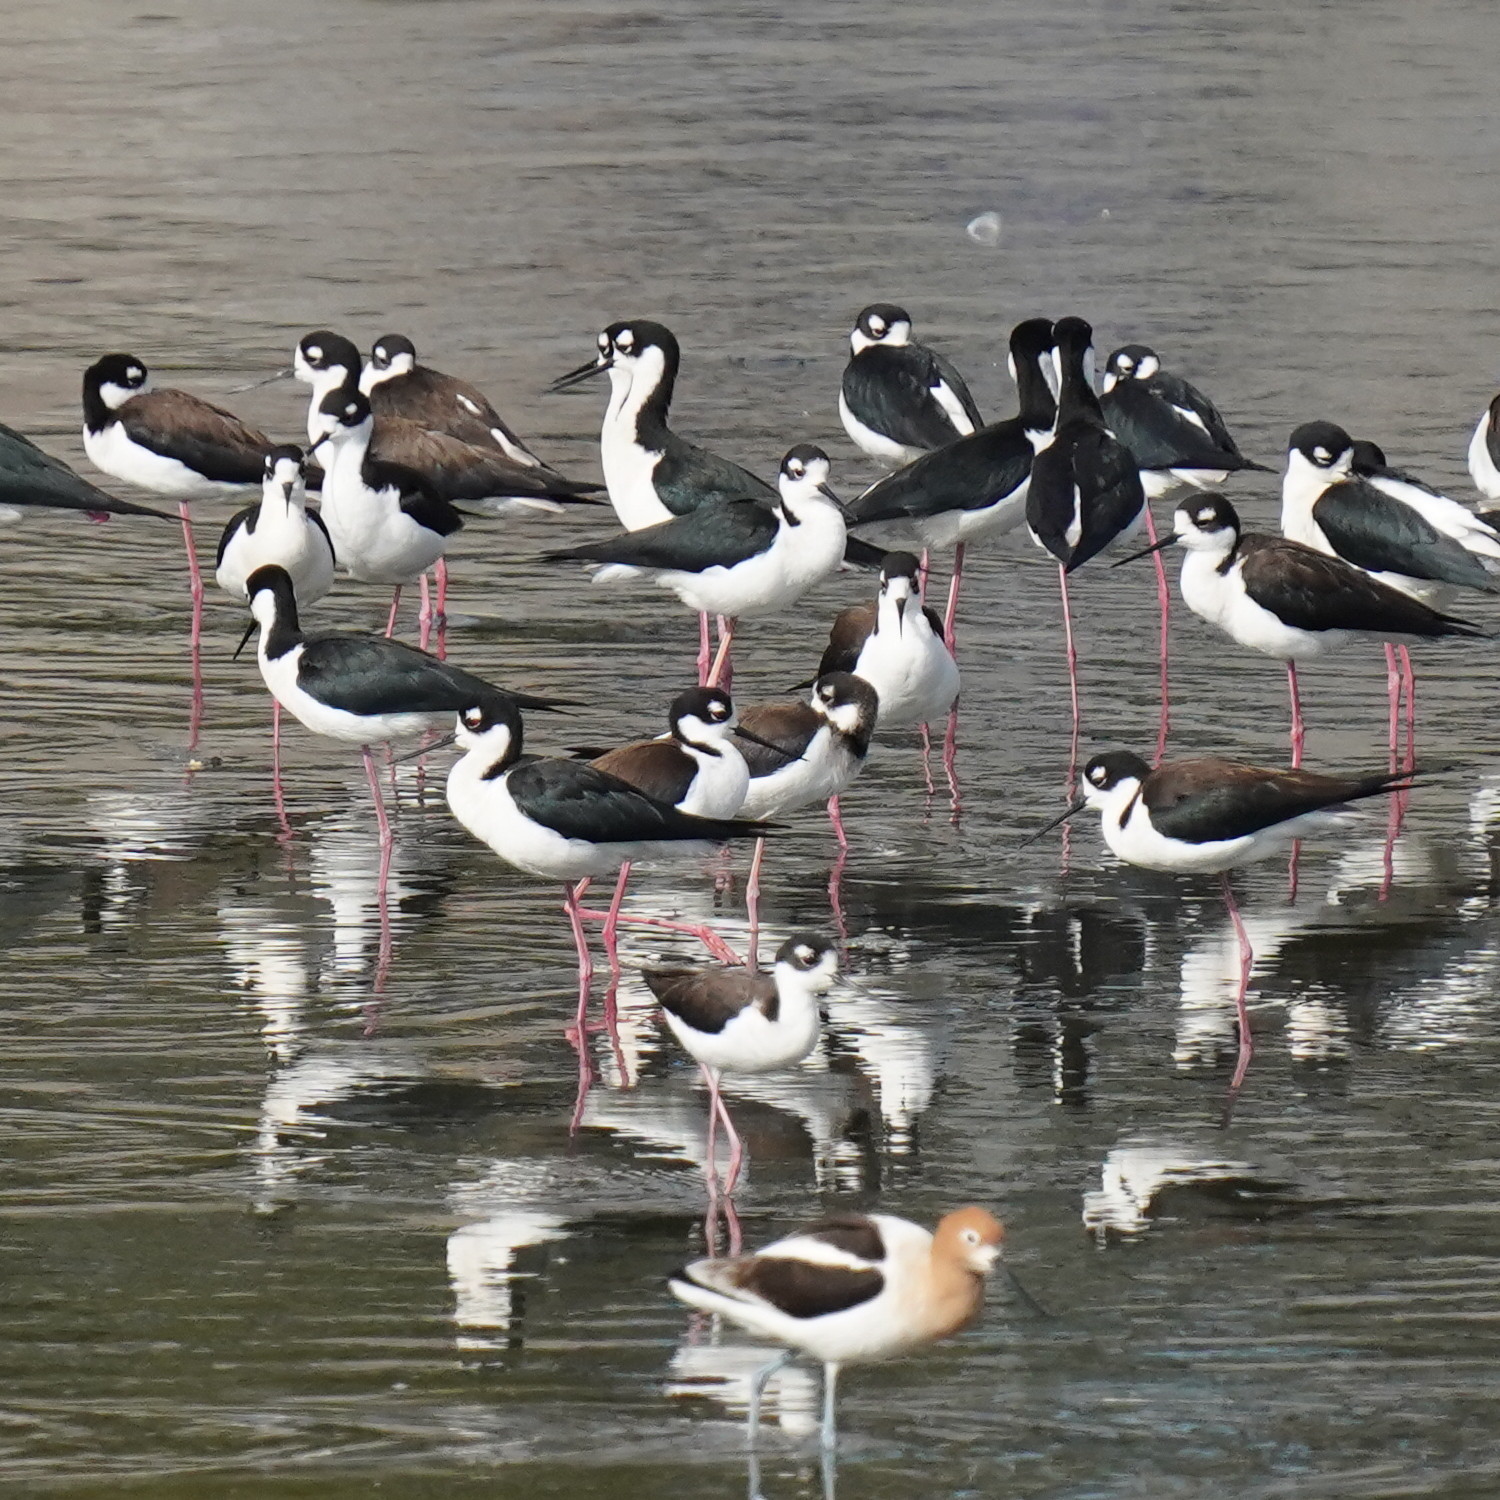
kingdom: Animalia
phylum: Chordata
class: Aves
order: Charadriiformes
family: Recurvirostridae
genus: Himantopus
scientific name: Himantopus mexicanus
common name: Black-necked stilt
